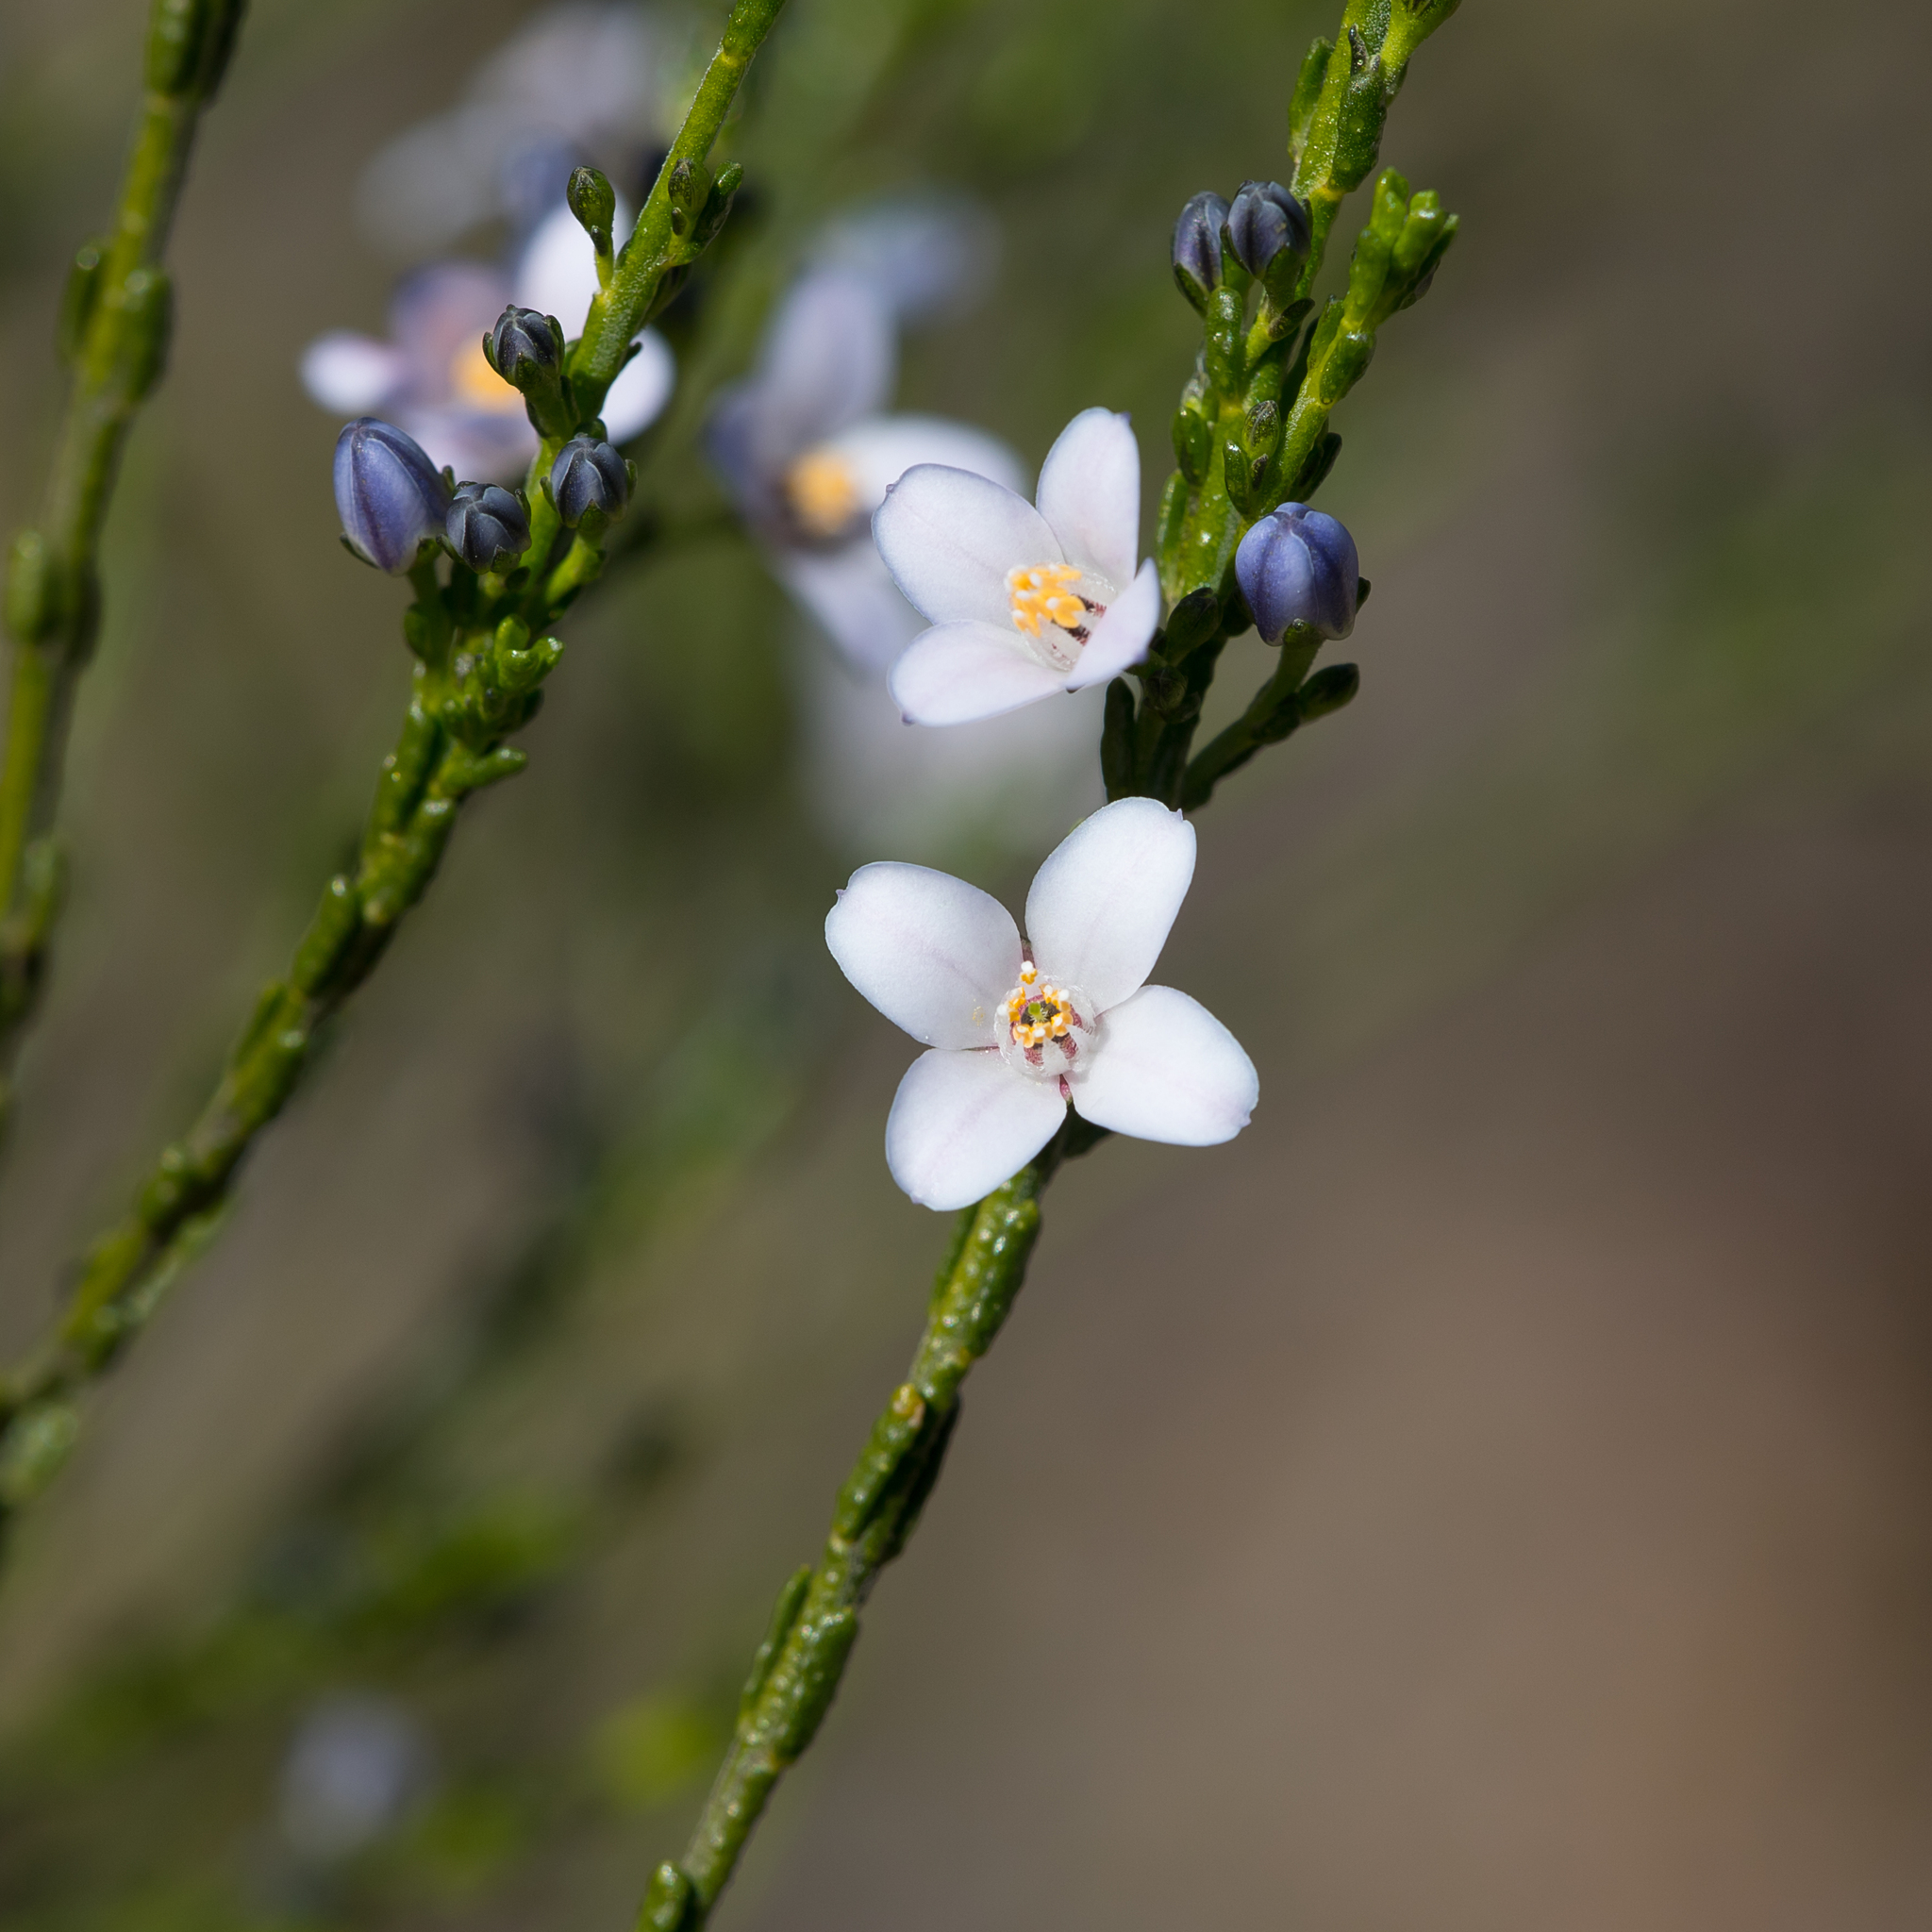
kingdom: Plantae
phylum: Tracheophyta
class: Magnoliopsida
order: Sapindales
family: Rutaceae
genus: Cyanothamnus
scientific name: Cyanothamnus coerulescens
